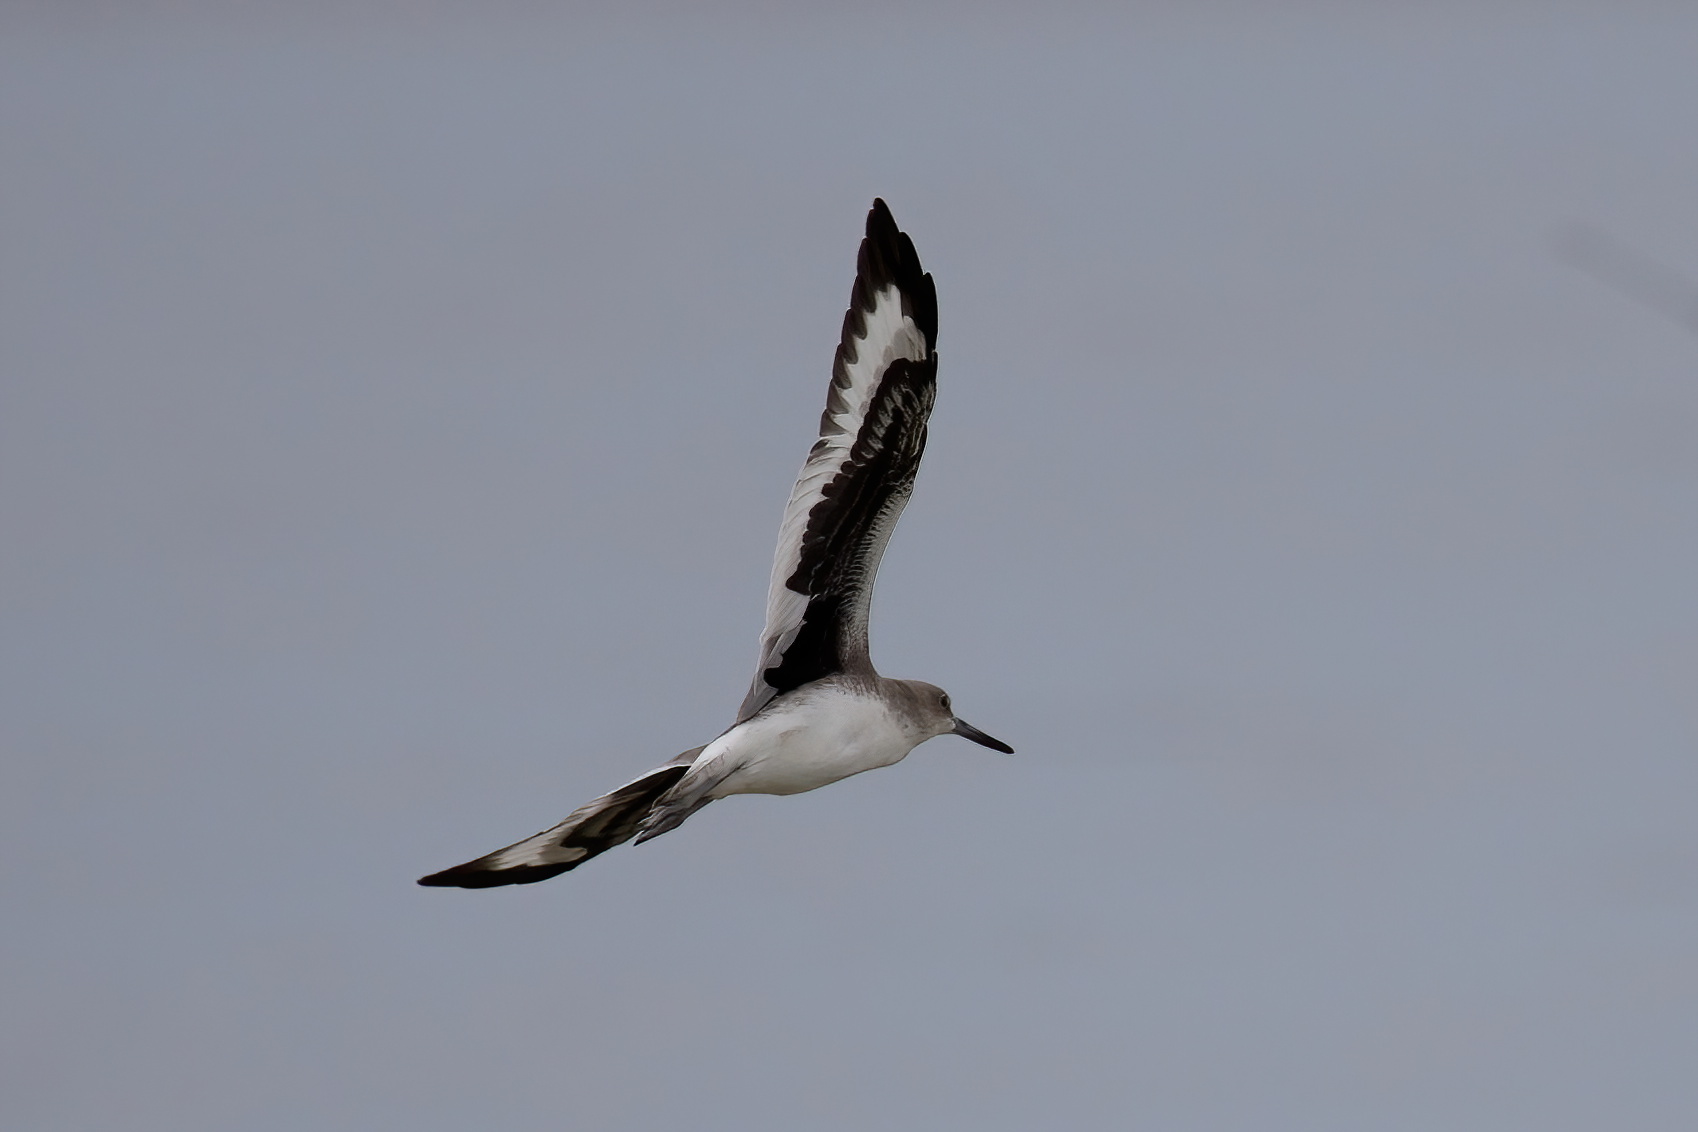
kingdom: Animalia
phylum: Chordata
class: Aves
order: Charadriiformes
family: Scolopacidae
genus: Tringa
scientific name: Tringa semipalmata
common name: Willet
